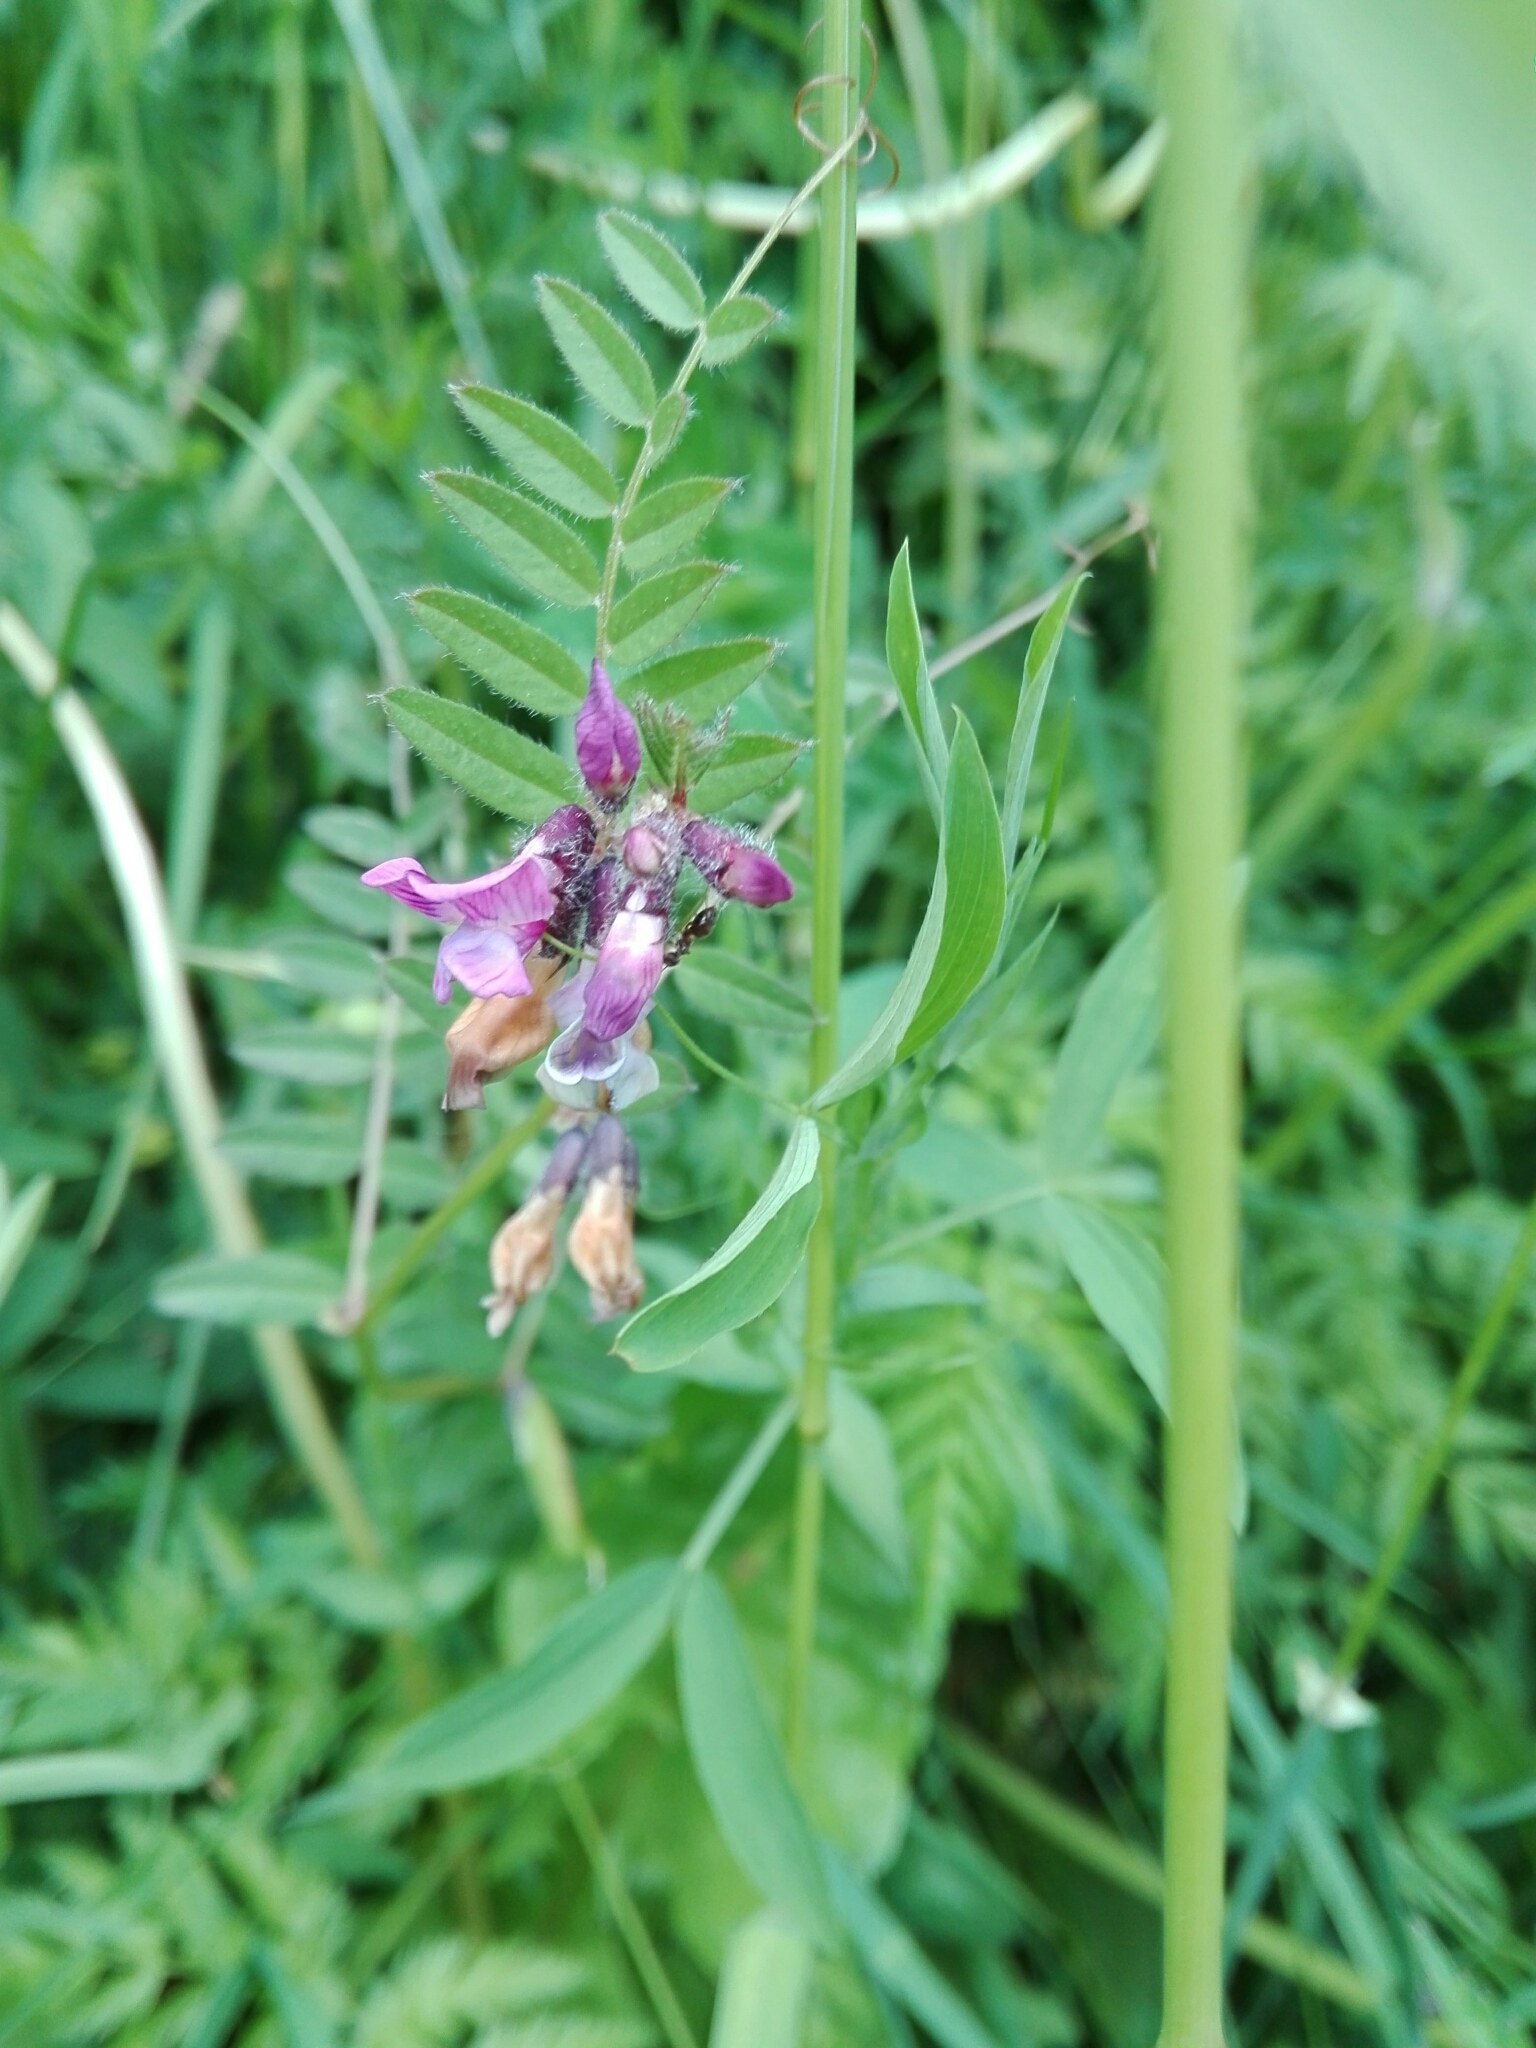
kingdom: Plantae
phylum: Tracheophyta
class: Magnoliopsida
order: Fabales
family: Fabaceae
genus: Vicia
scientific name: Vicia sepium
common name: Bush vetch
